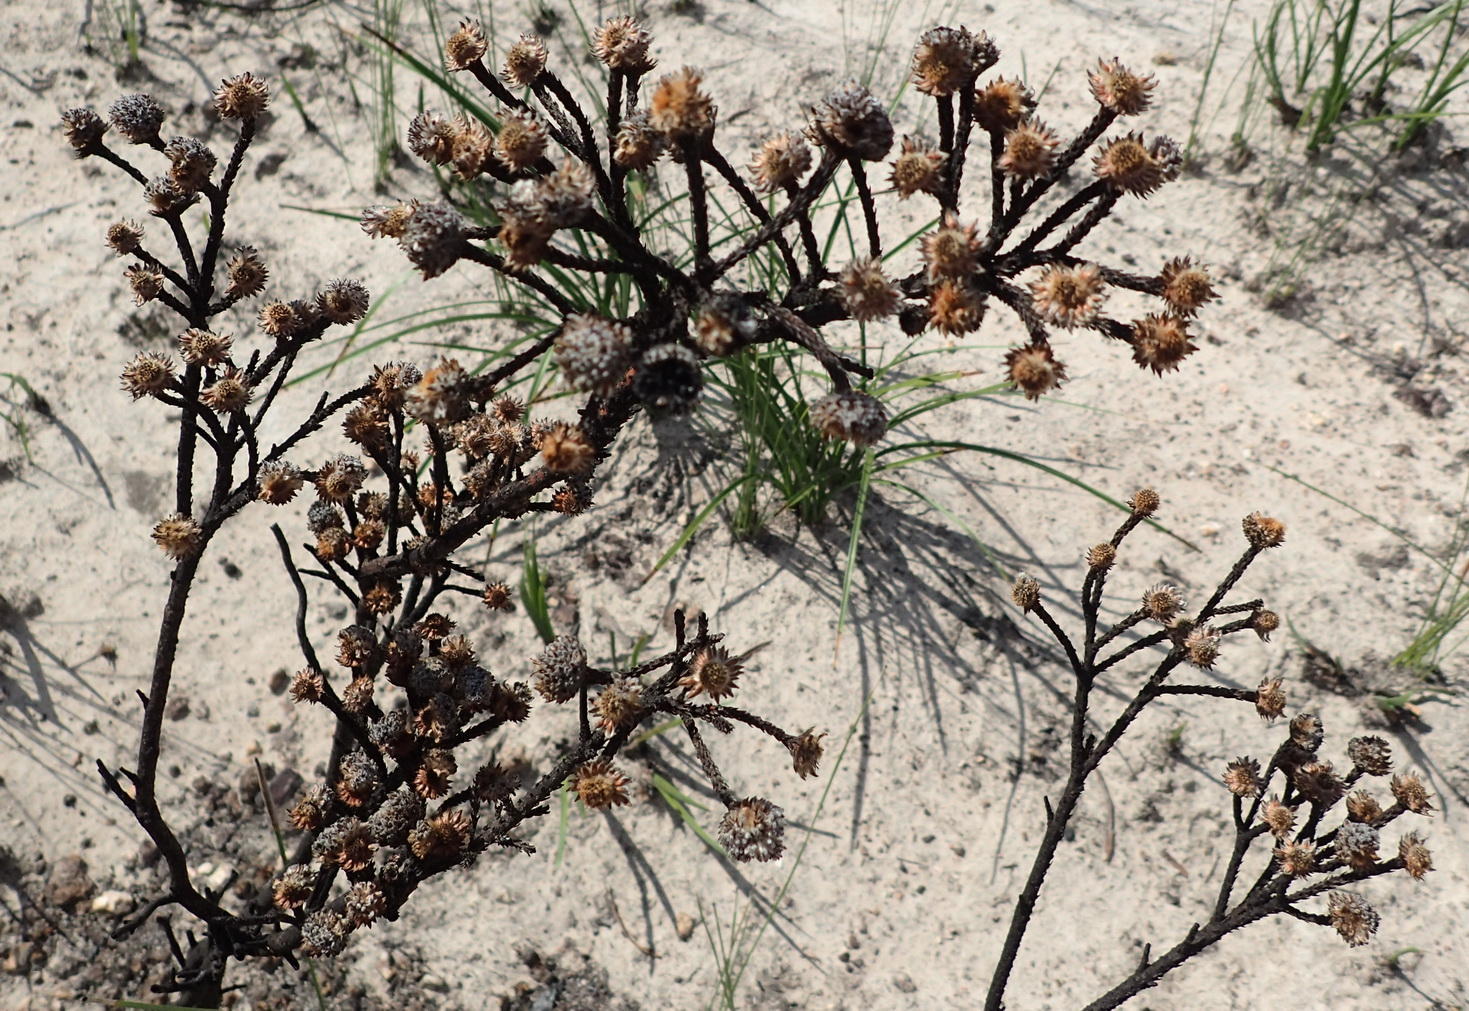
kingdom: Plantae
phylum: Tracheophyta
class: Magnoliopsida
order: Bruniales
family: Bruniaceae
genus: Brunia
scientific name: Brunia noduliflora
